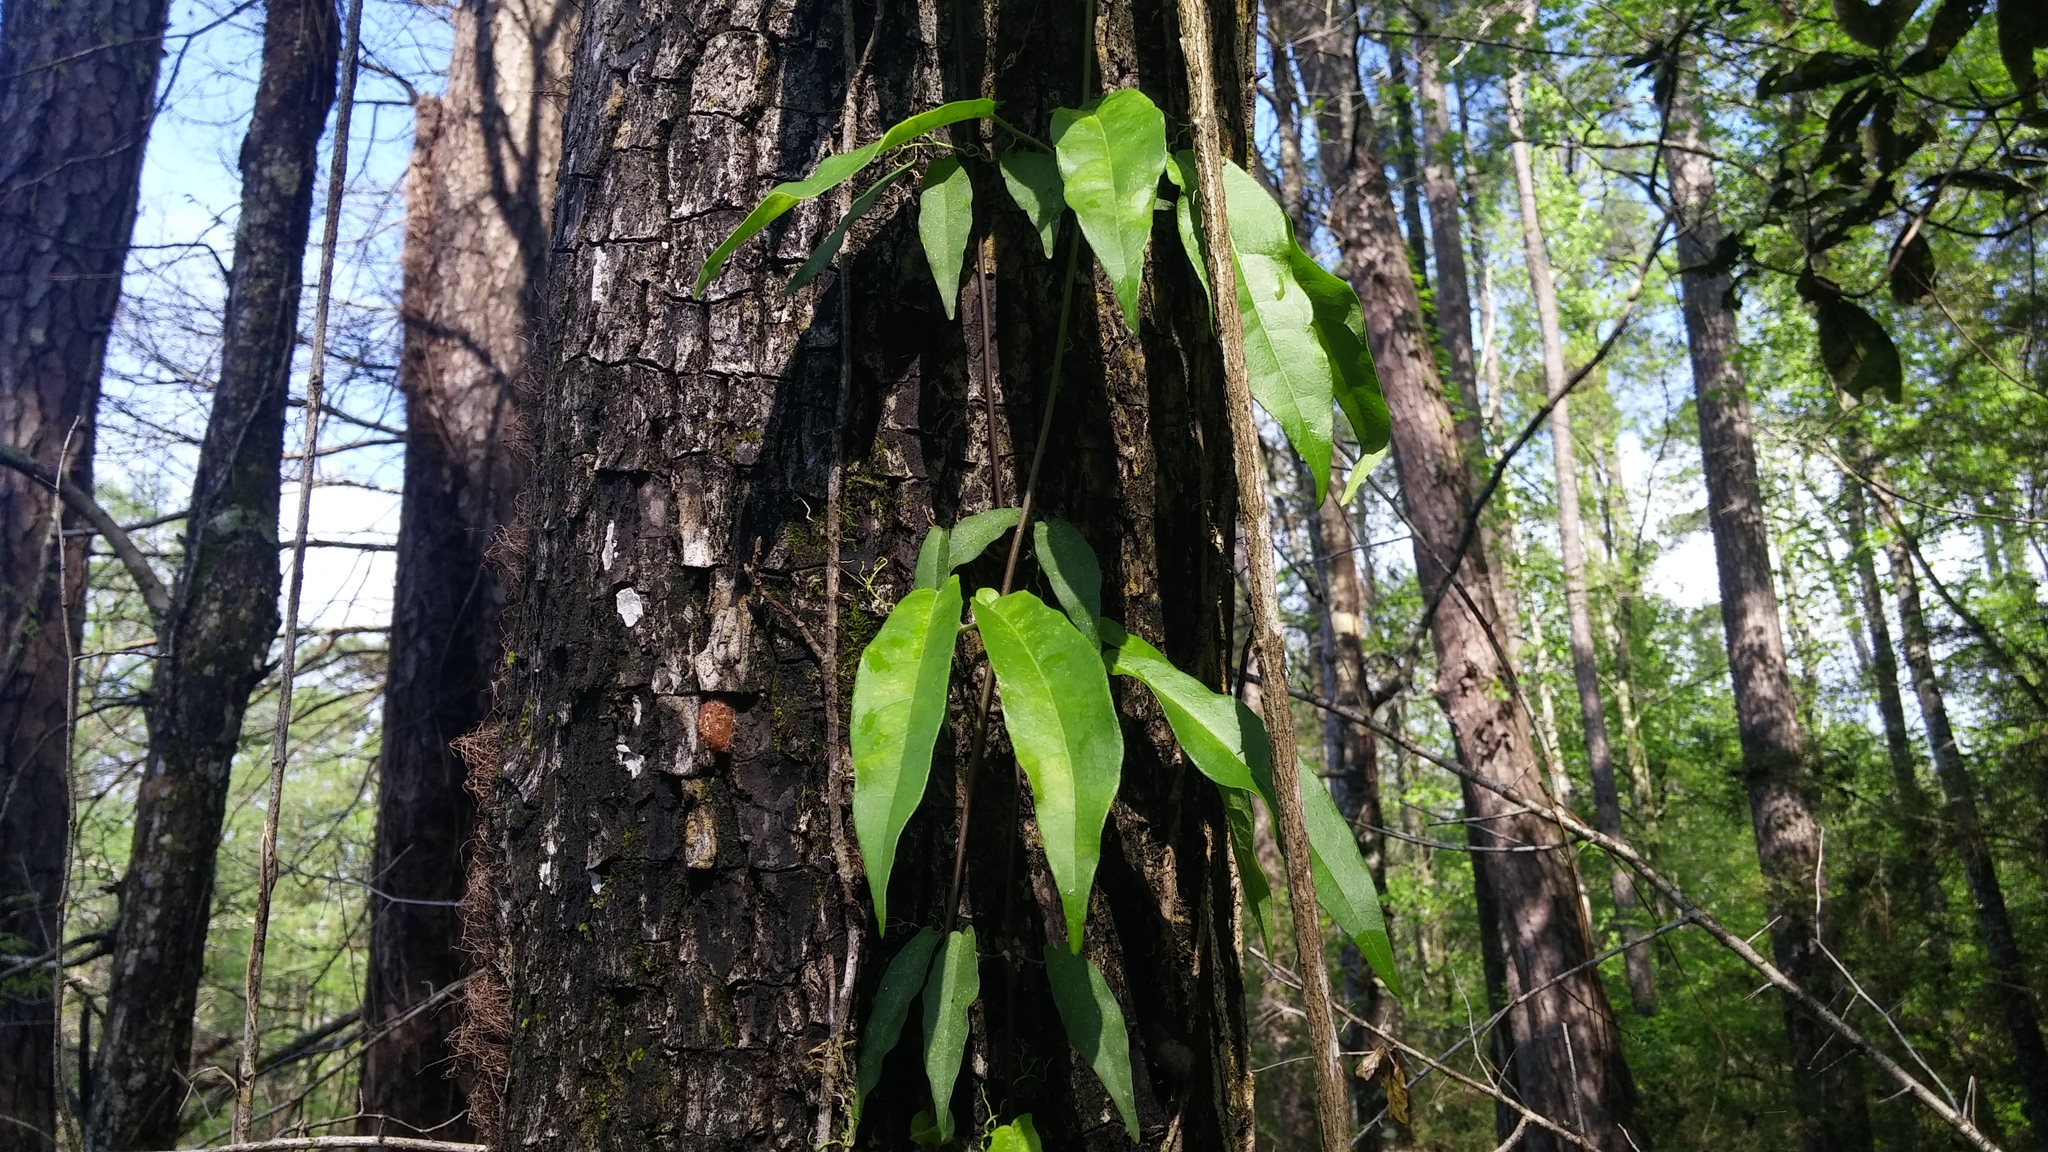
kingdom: Plantae
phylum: Tracheophyta
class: Magnoliopsida
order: Lamiales
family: Bignoniaceae
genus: Bignonia
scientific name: Bignonia capreolata
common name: Crossvine
